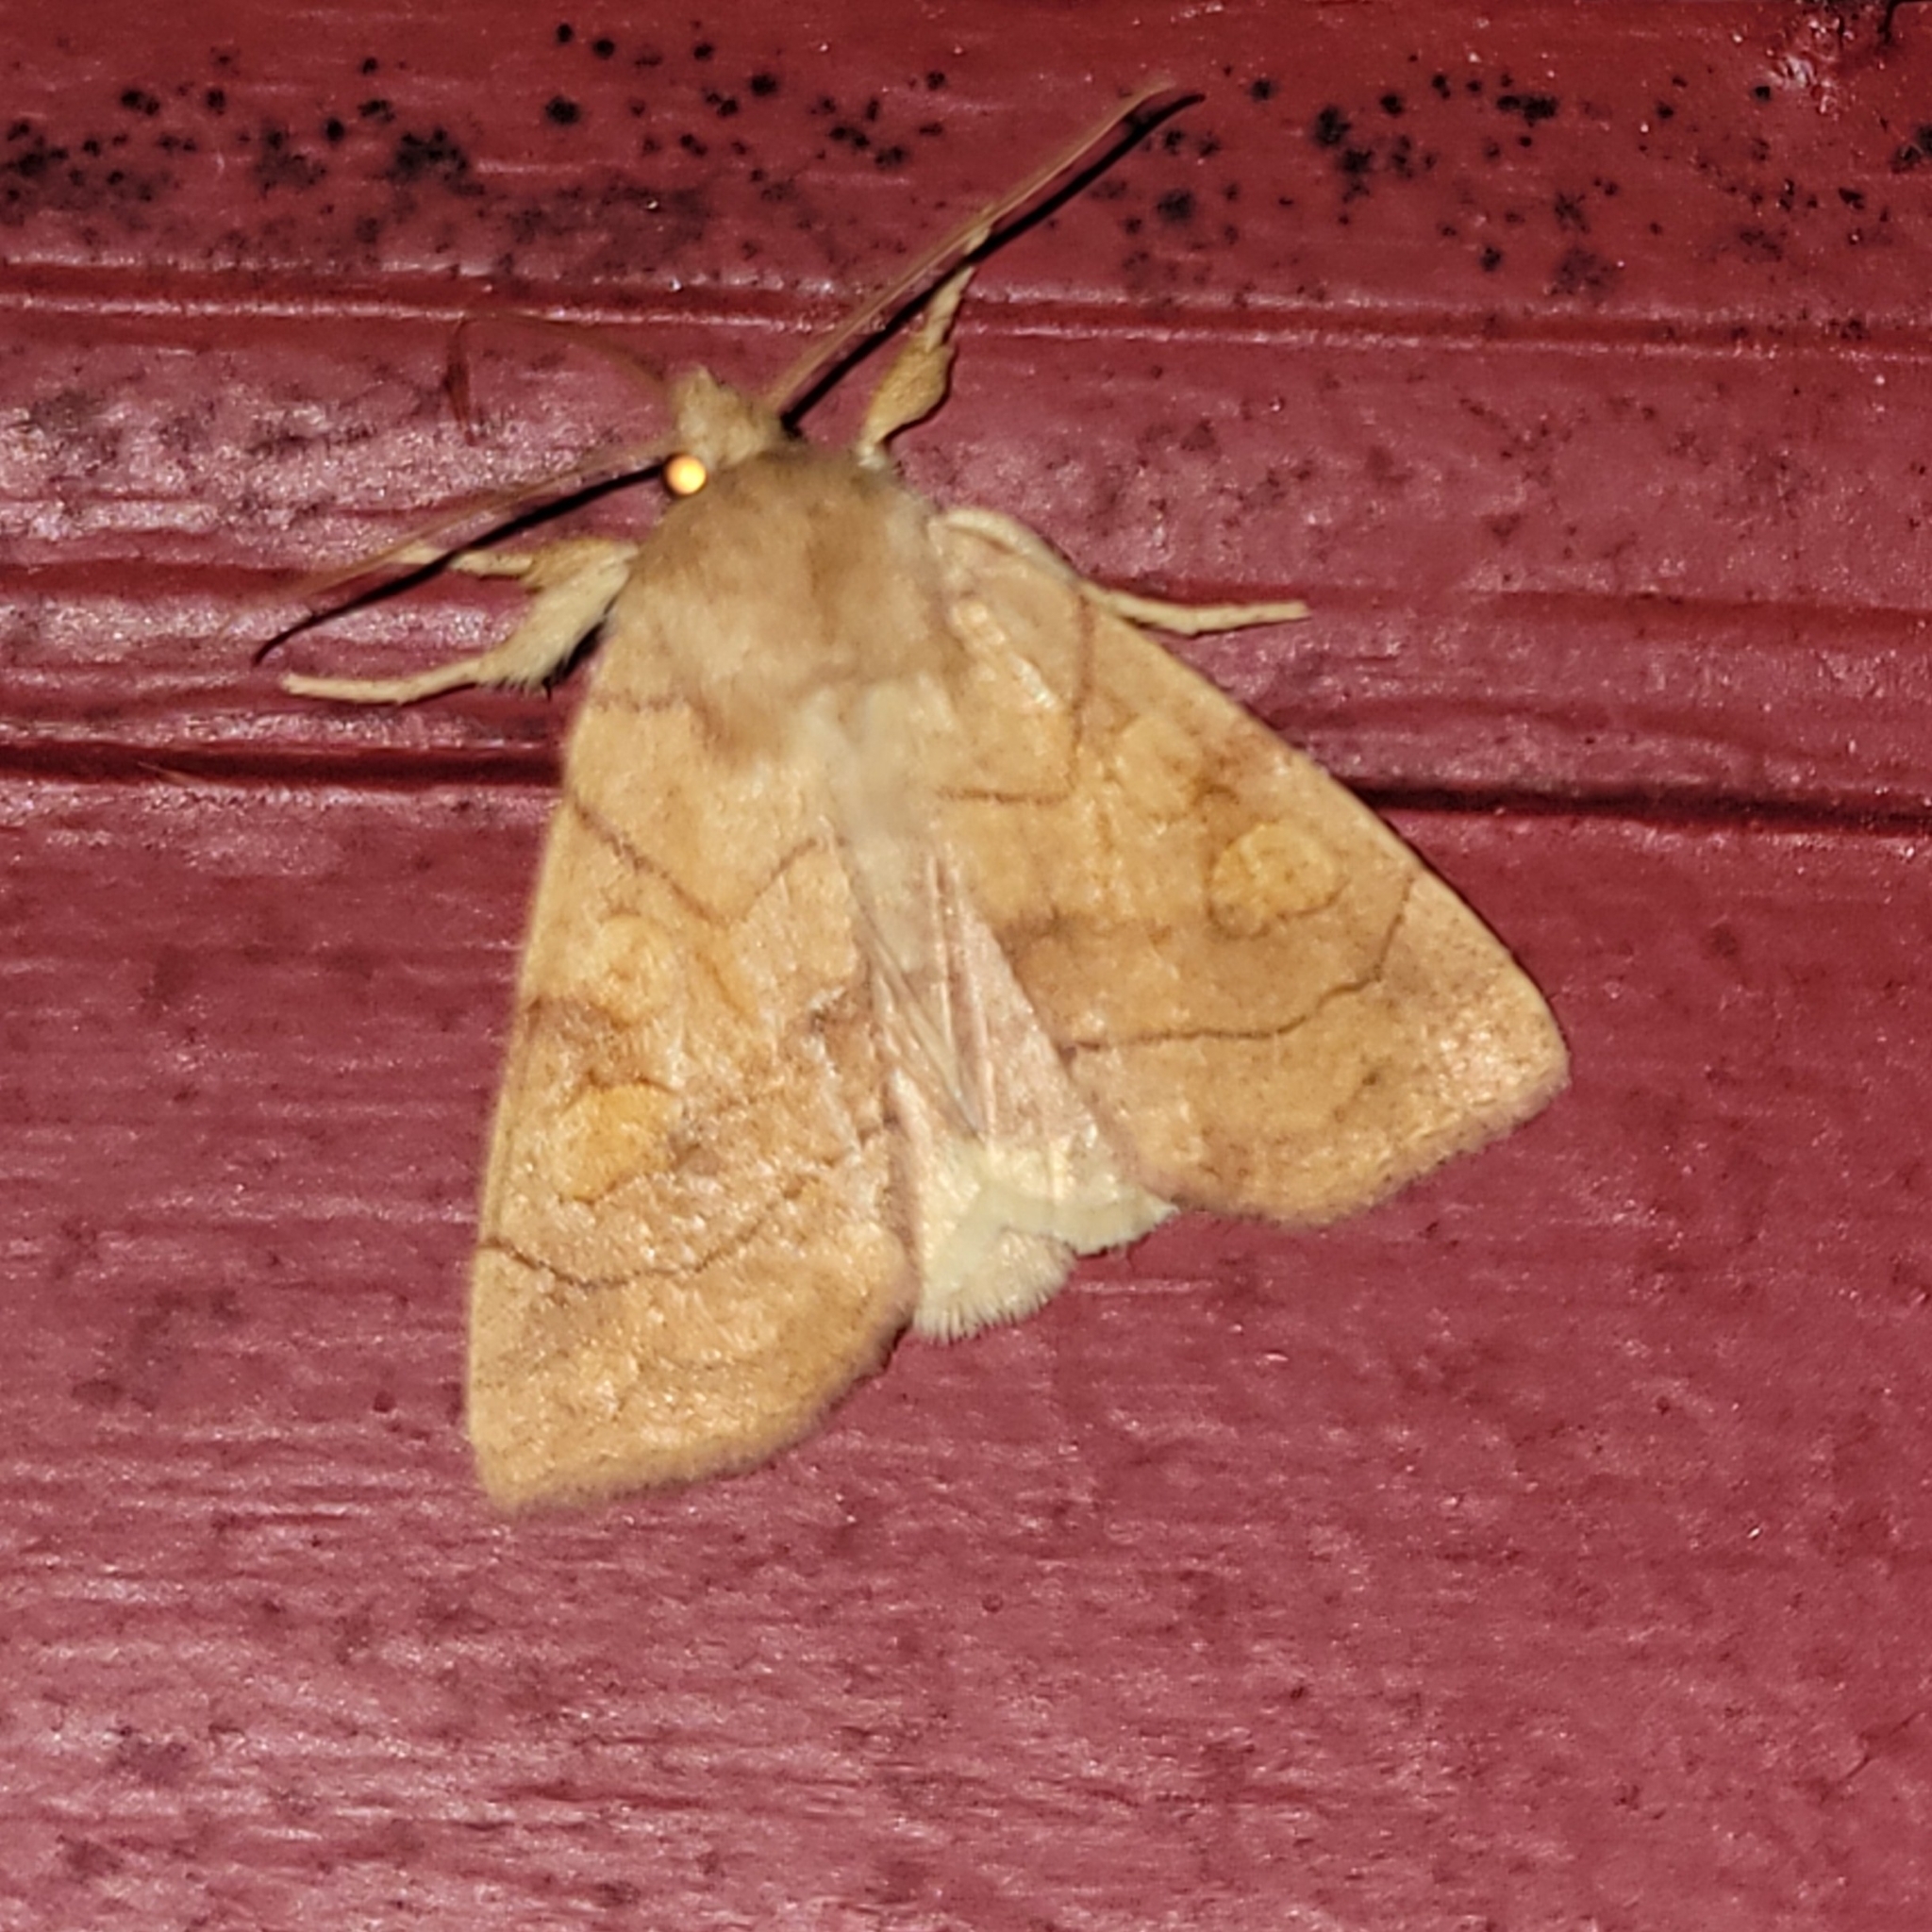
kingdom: Animalia
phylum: Arthropoda
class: Insecta
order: Lepidoptera
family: Noctuidae
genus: Enargia
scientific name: Enargia decolor
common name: Aspen twoleaf tier moth
